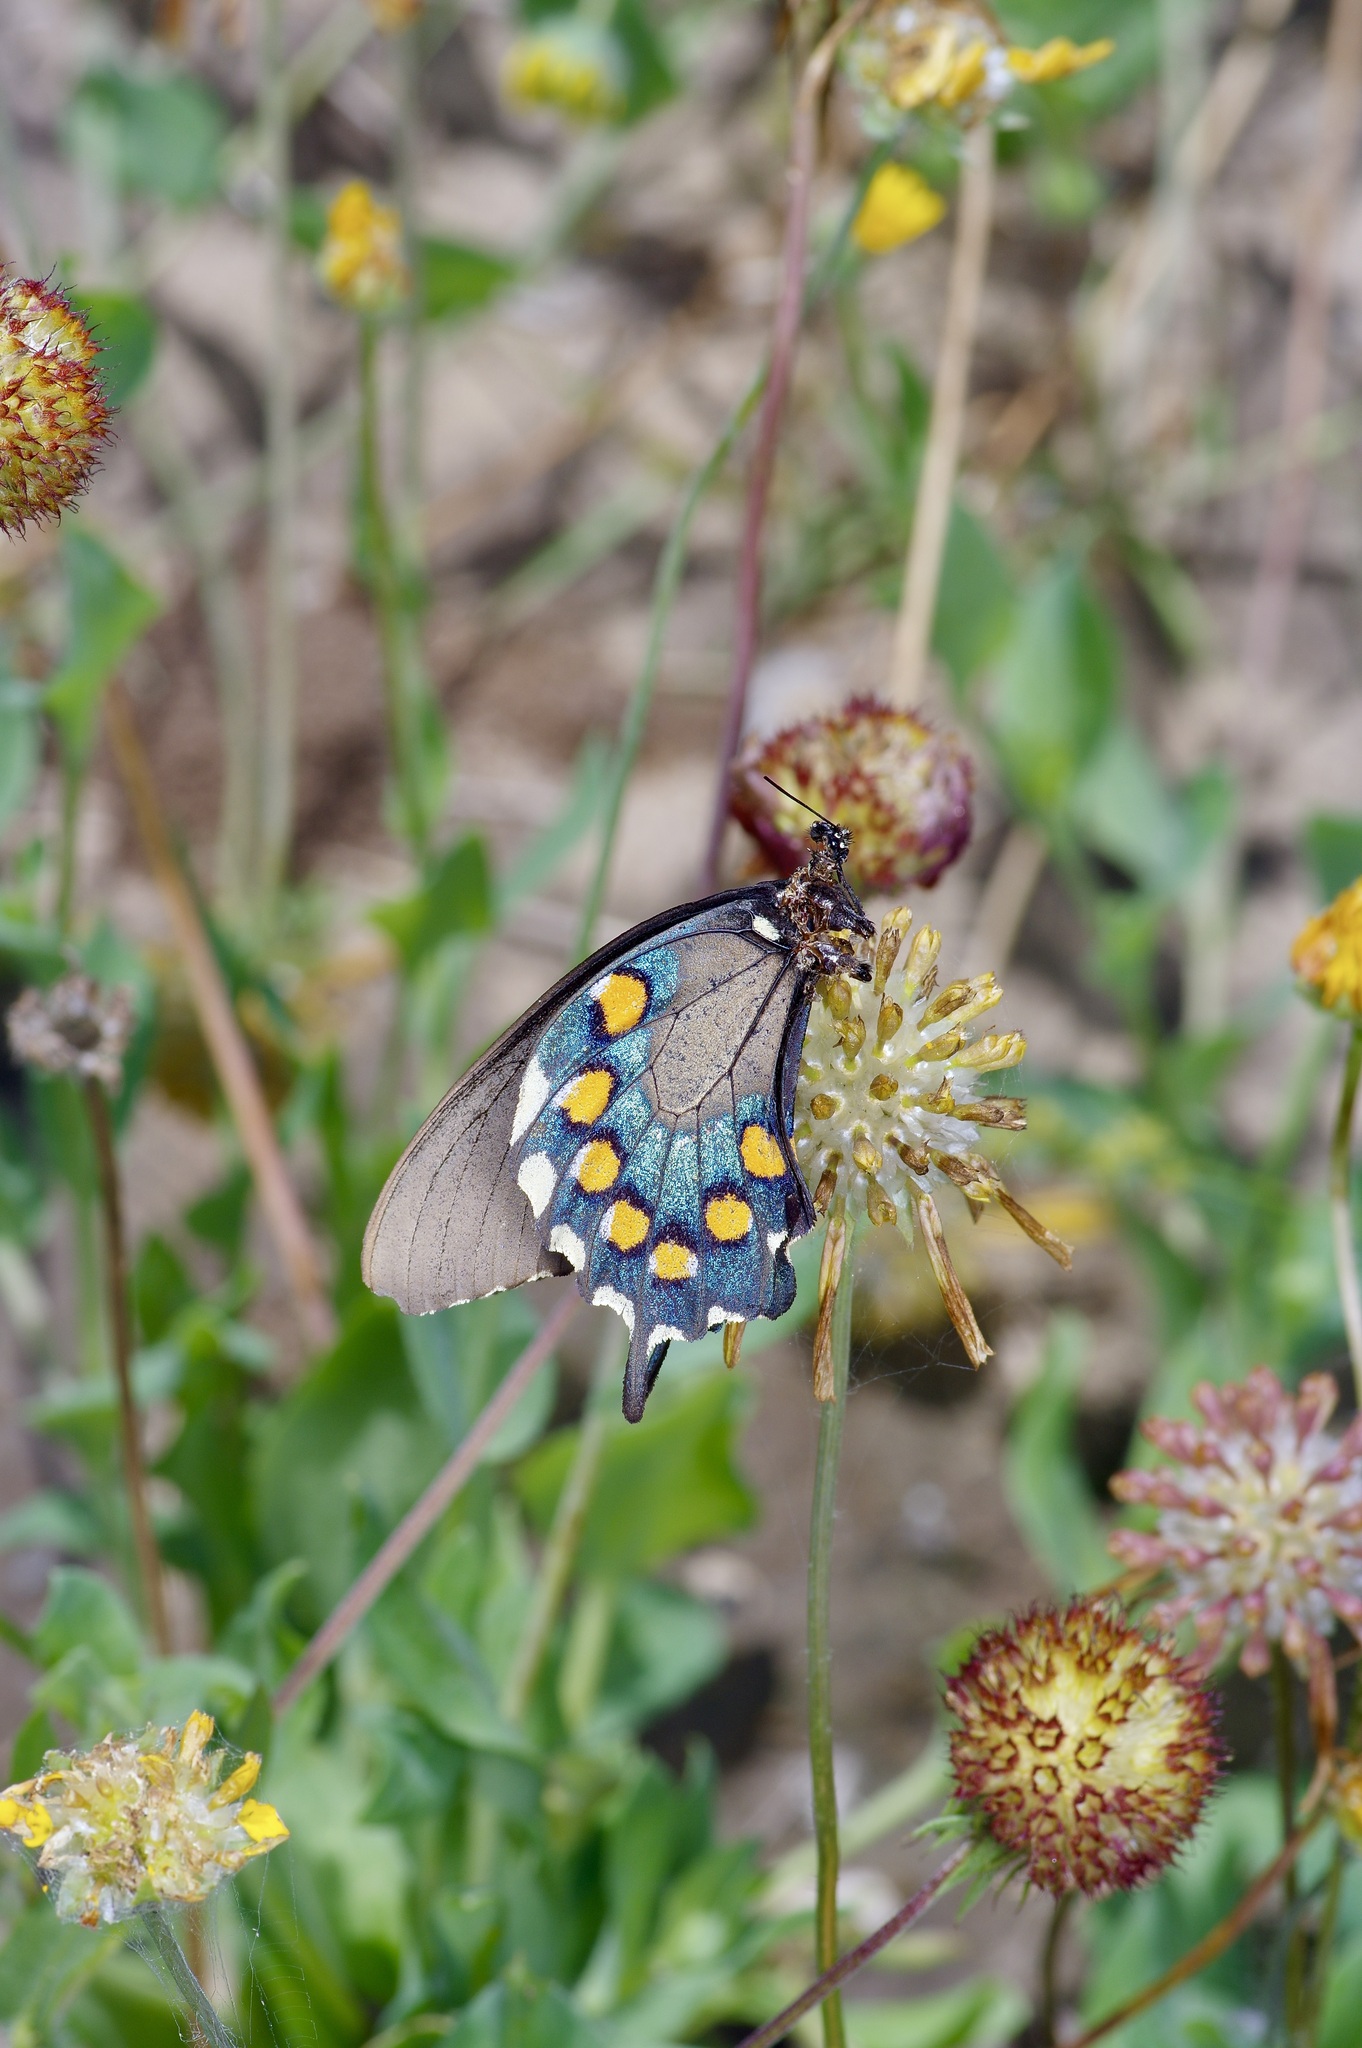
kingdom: Animalia
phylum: Arthropoda
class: Insecta
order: Lepidoptera
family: Papilionidae
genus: Battus
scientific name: Battus philenor
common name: Pipevine swallowtail
